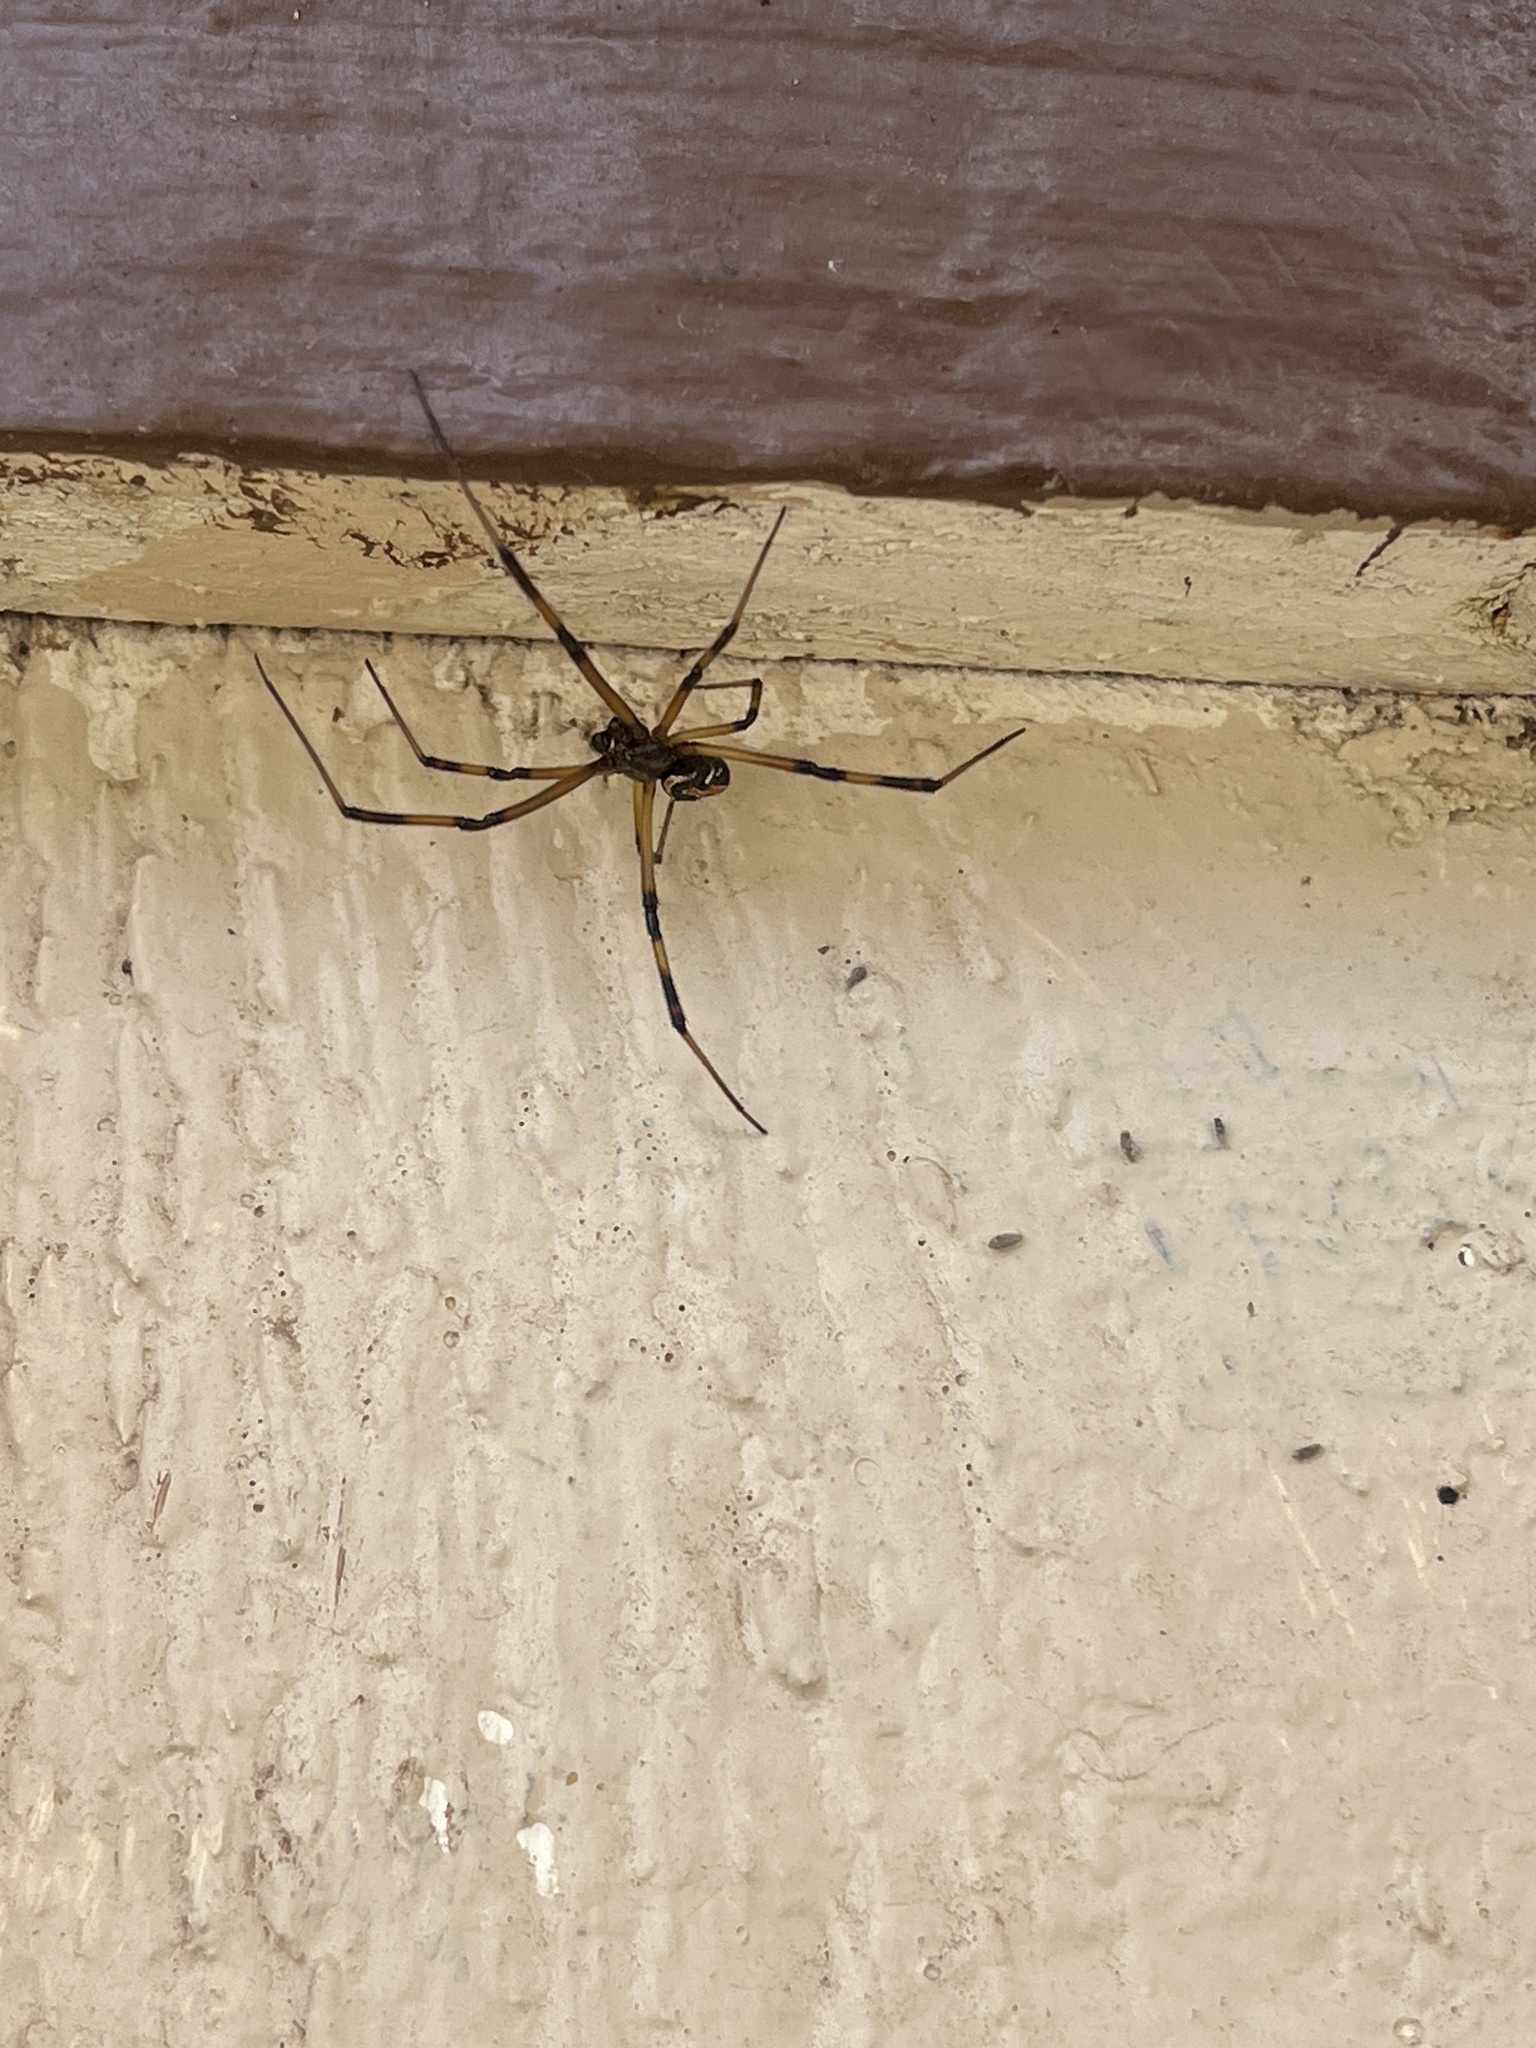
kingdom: Animalia
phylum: Arthropoda
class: Arachnida
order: Araneae
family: Theridiidae
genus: Latrodectus
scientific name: Latrodectus hesperus
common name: Western black widow
